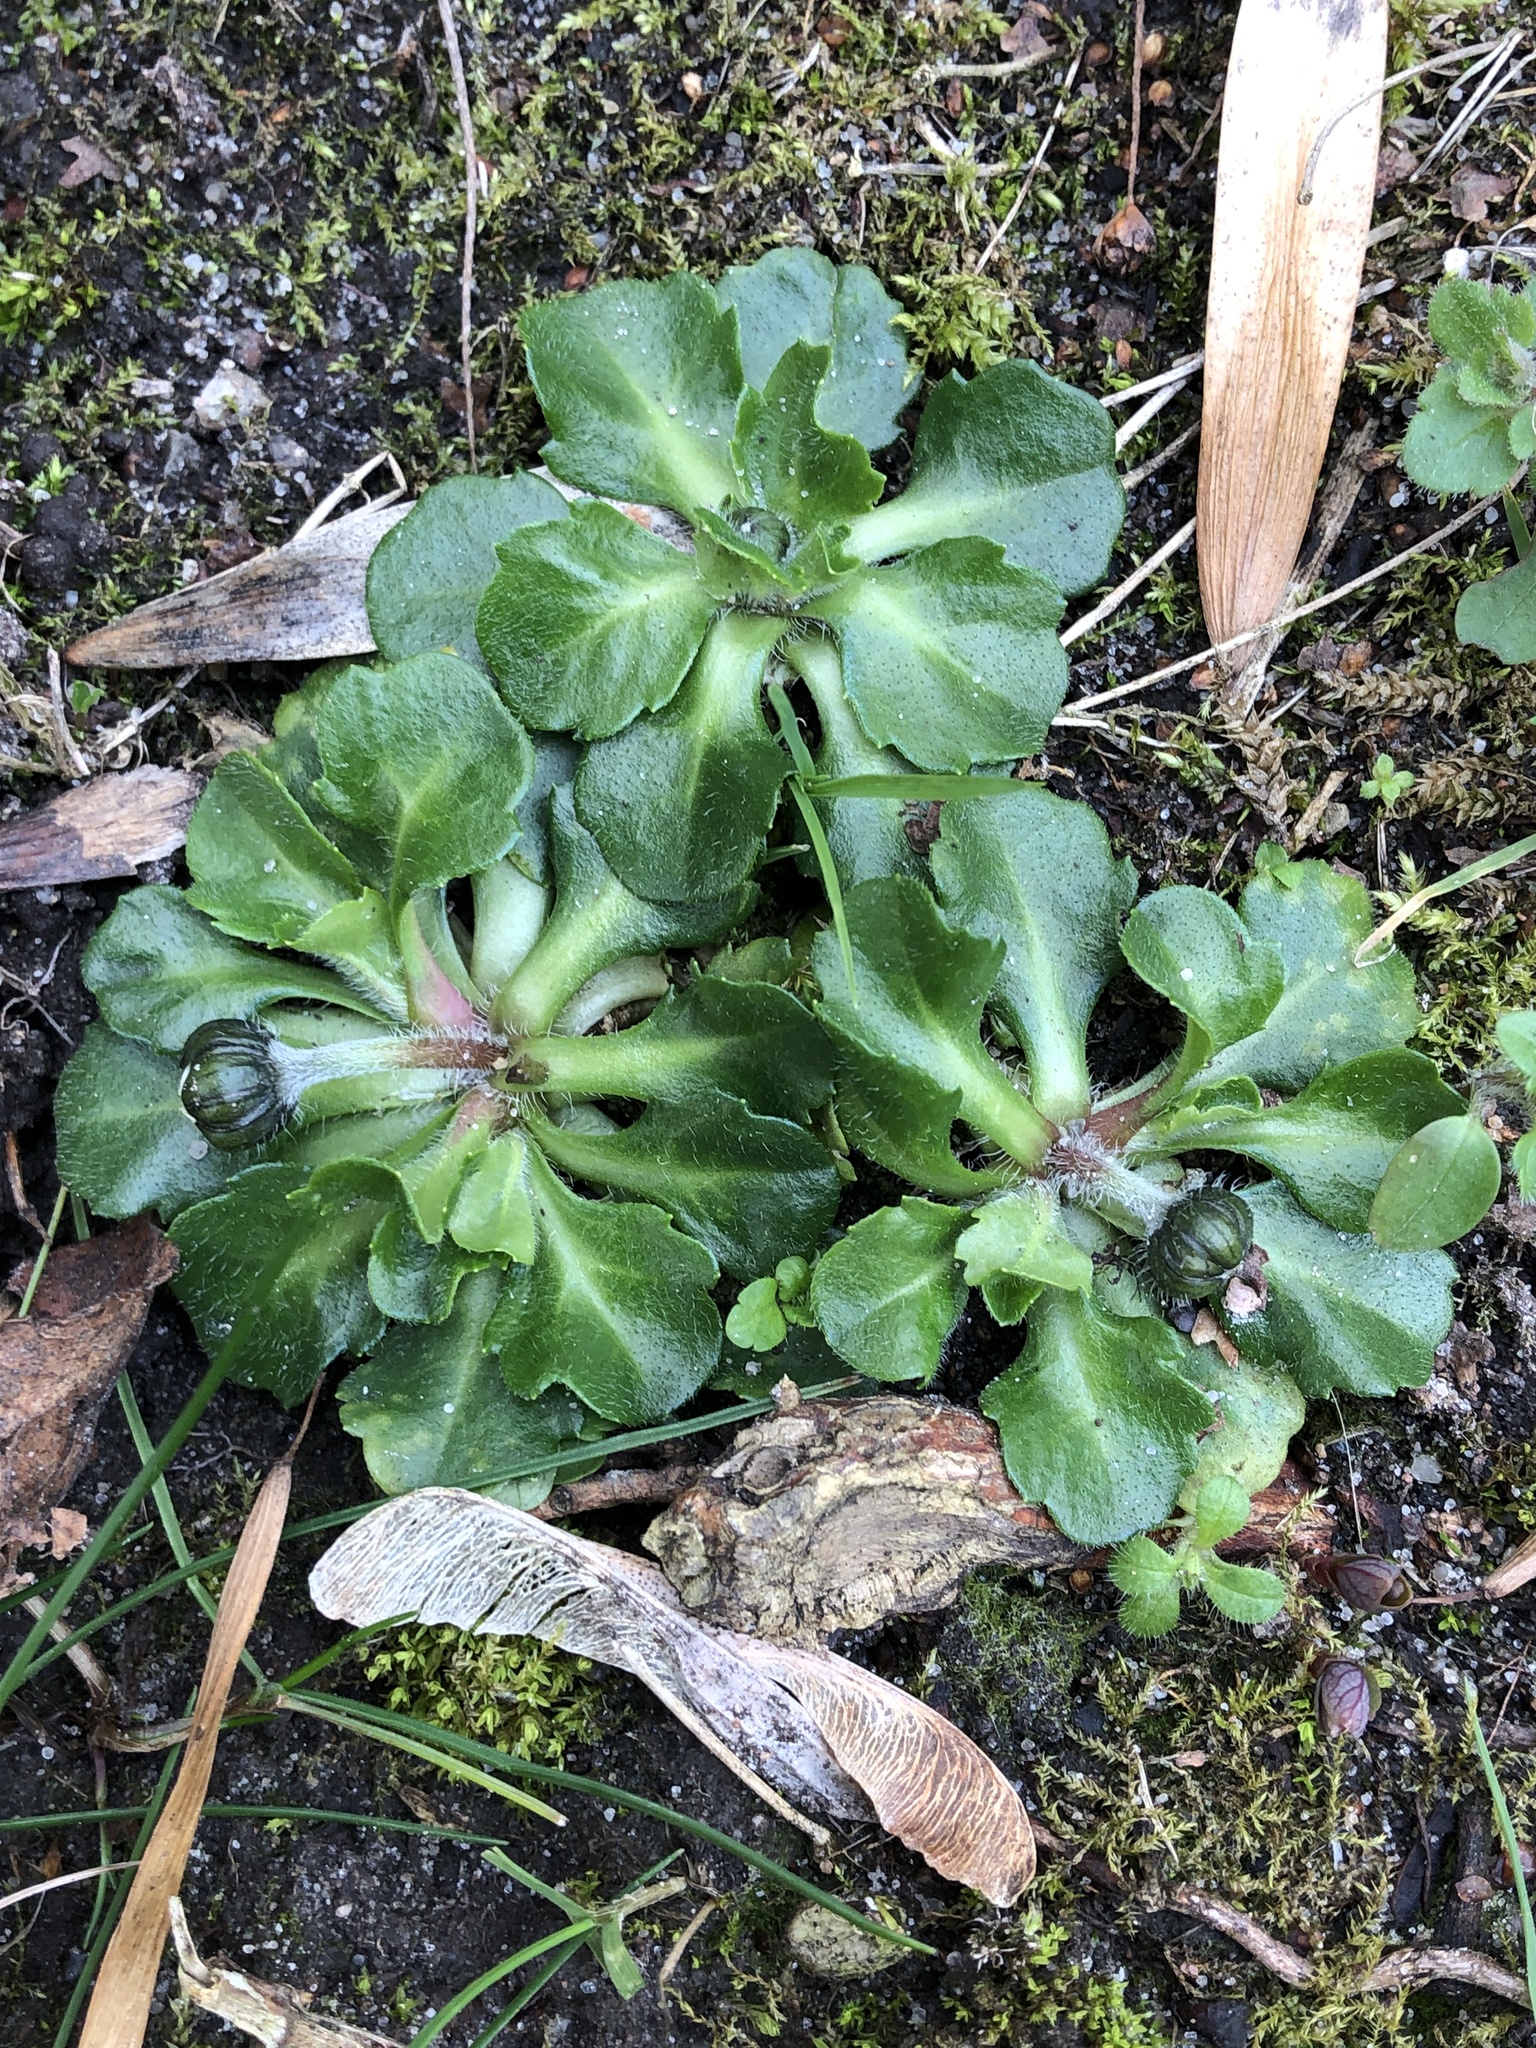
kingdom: Plantae
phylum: Tracheophyta
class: Magnoliopsida
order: Asterales
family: Asteraceae
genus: Bellis
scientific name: Bellis perennis
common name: Lawndaisy
